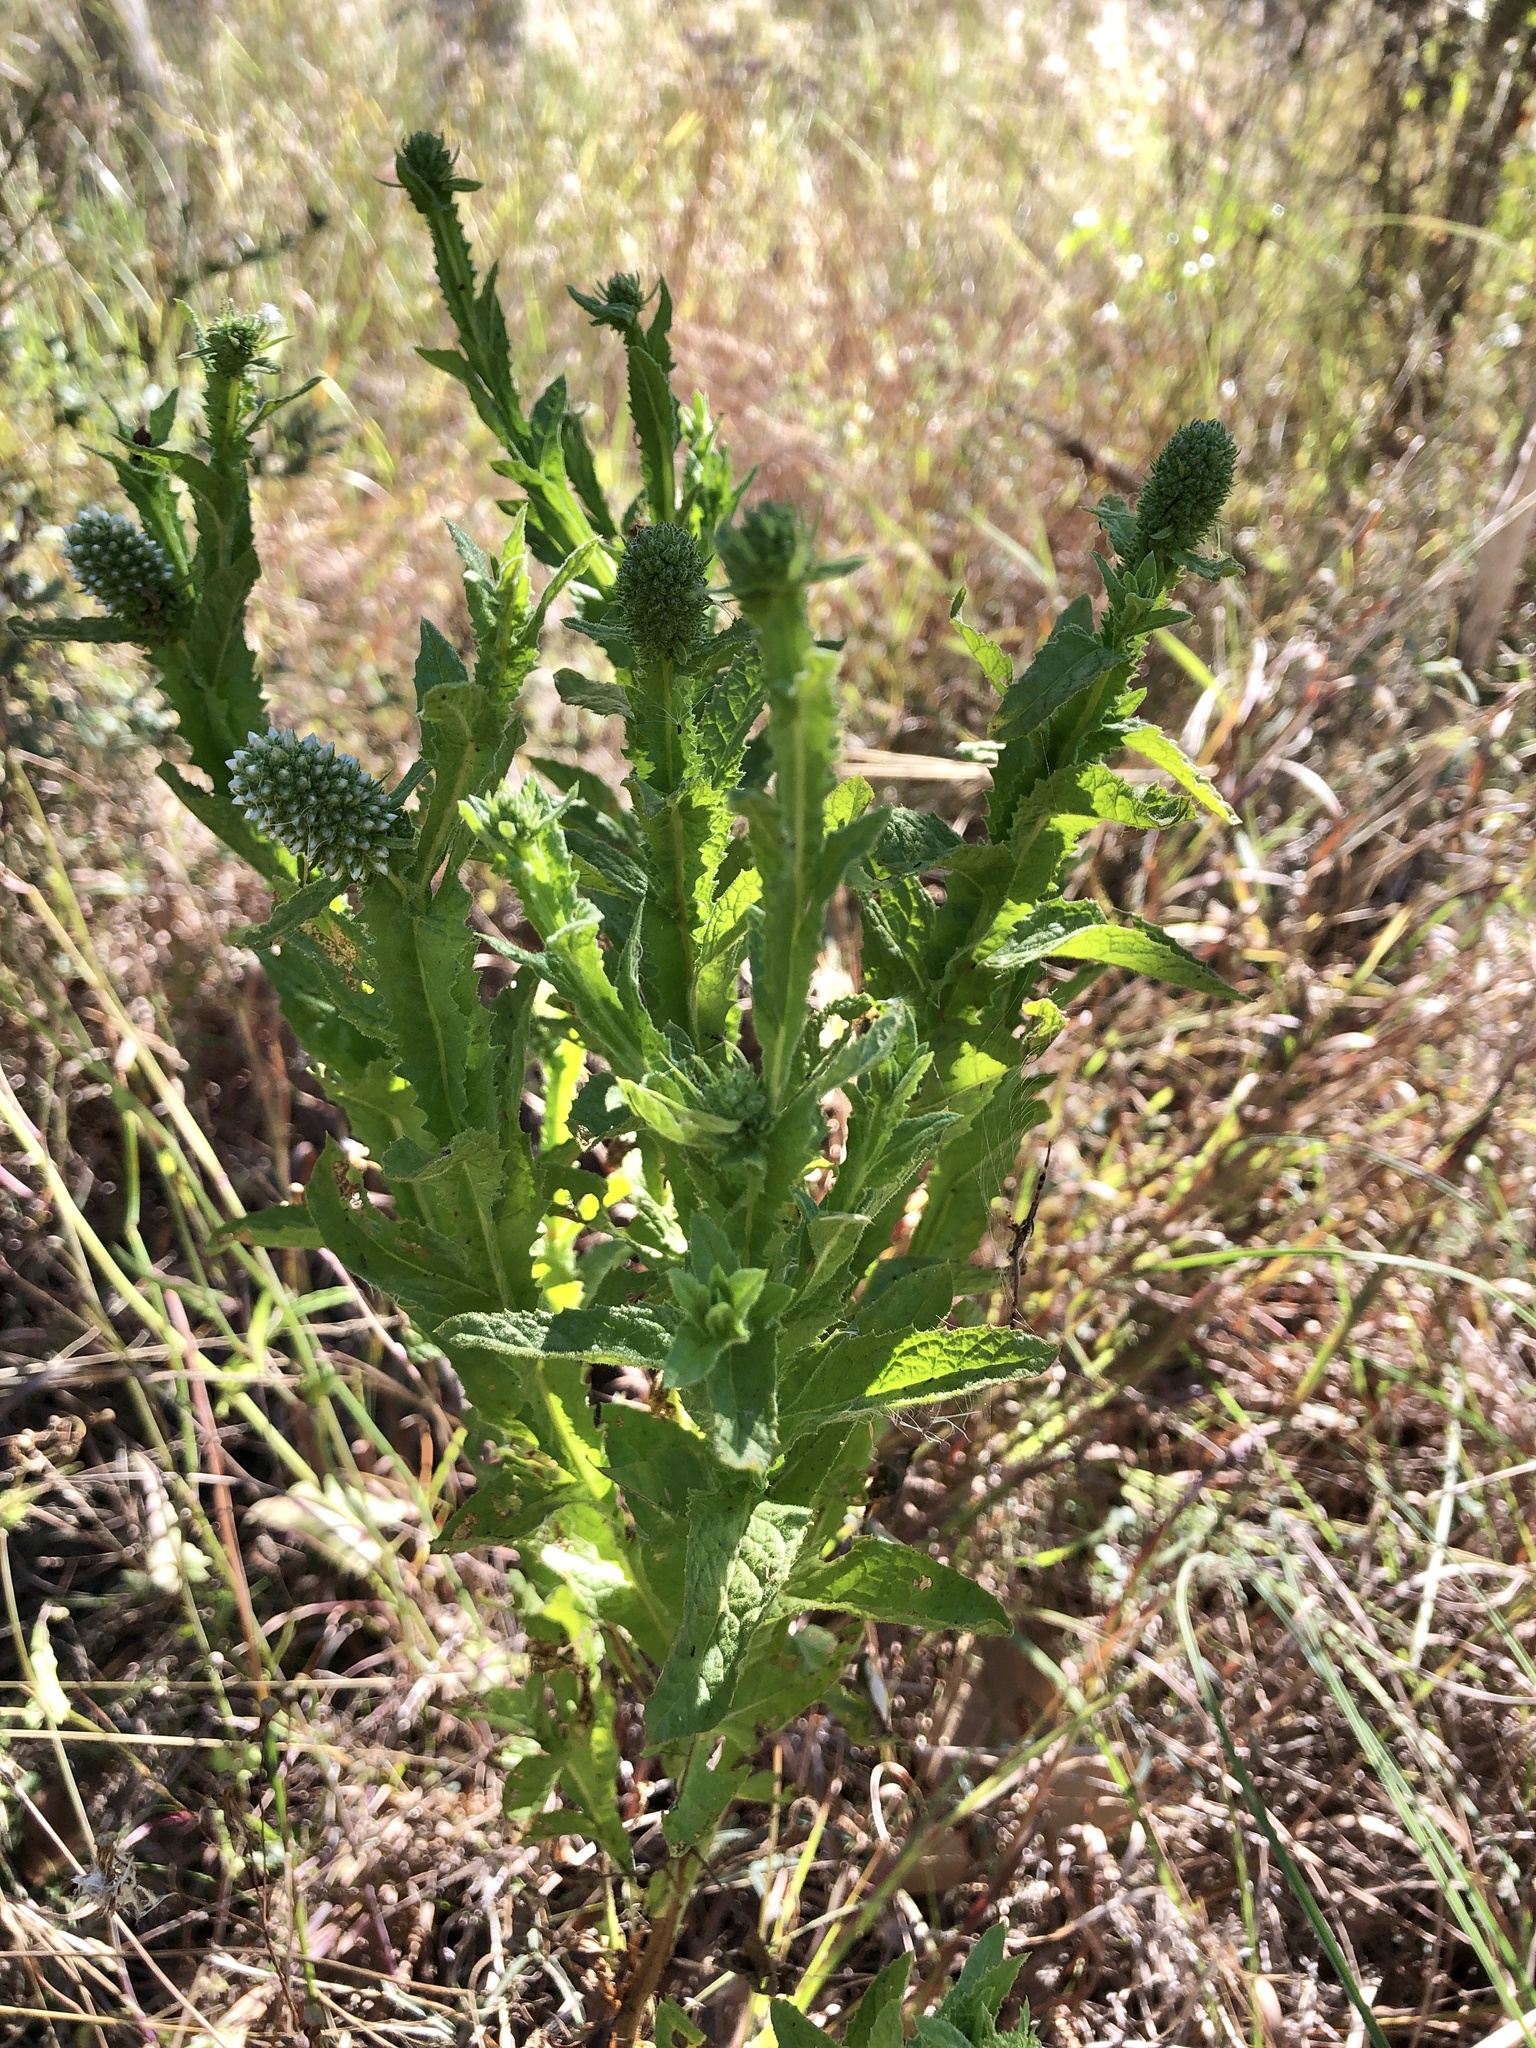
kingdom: Plantae
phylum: Tracheophyta
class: Magnoliopsida
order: Asterales
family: Asteraceae
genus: Pterocaulon
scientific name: Pterocaulon serrulatum
